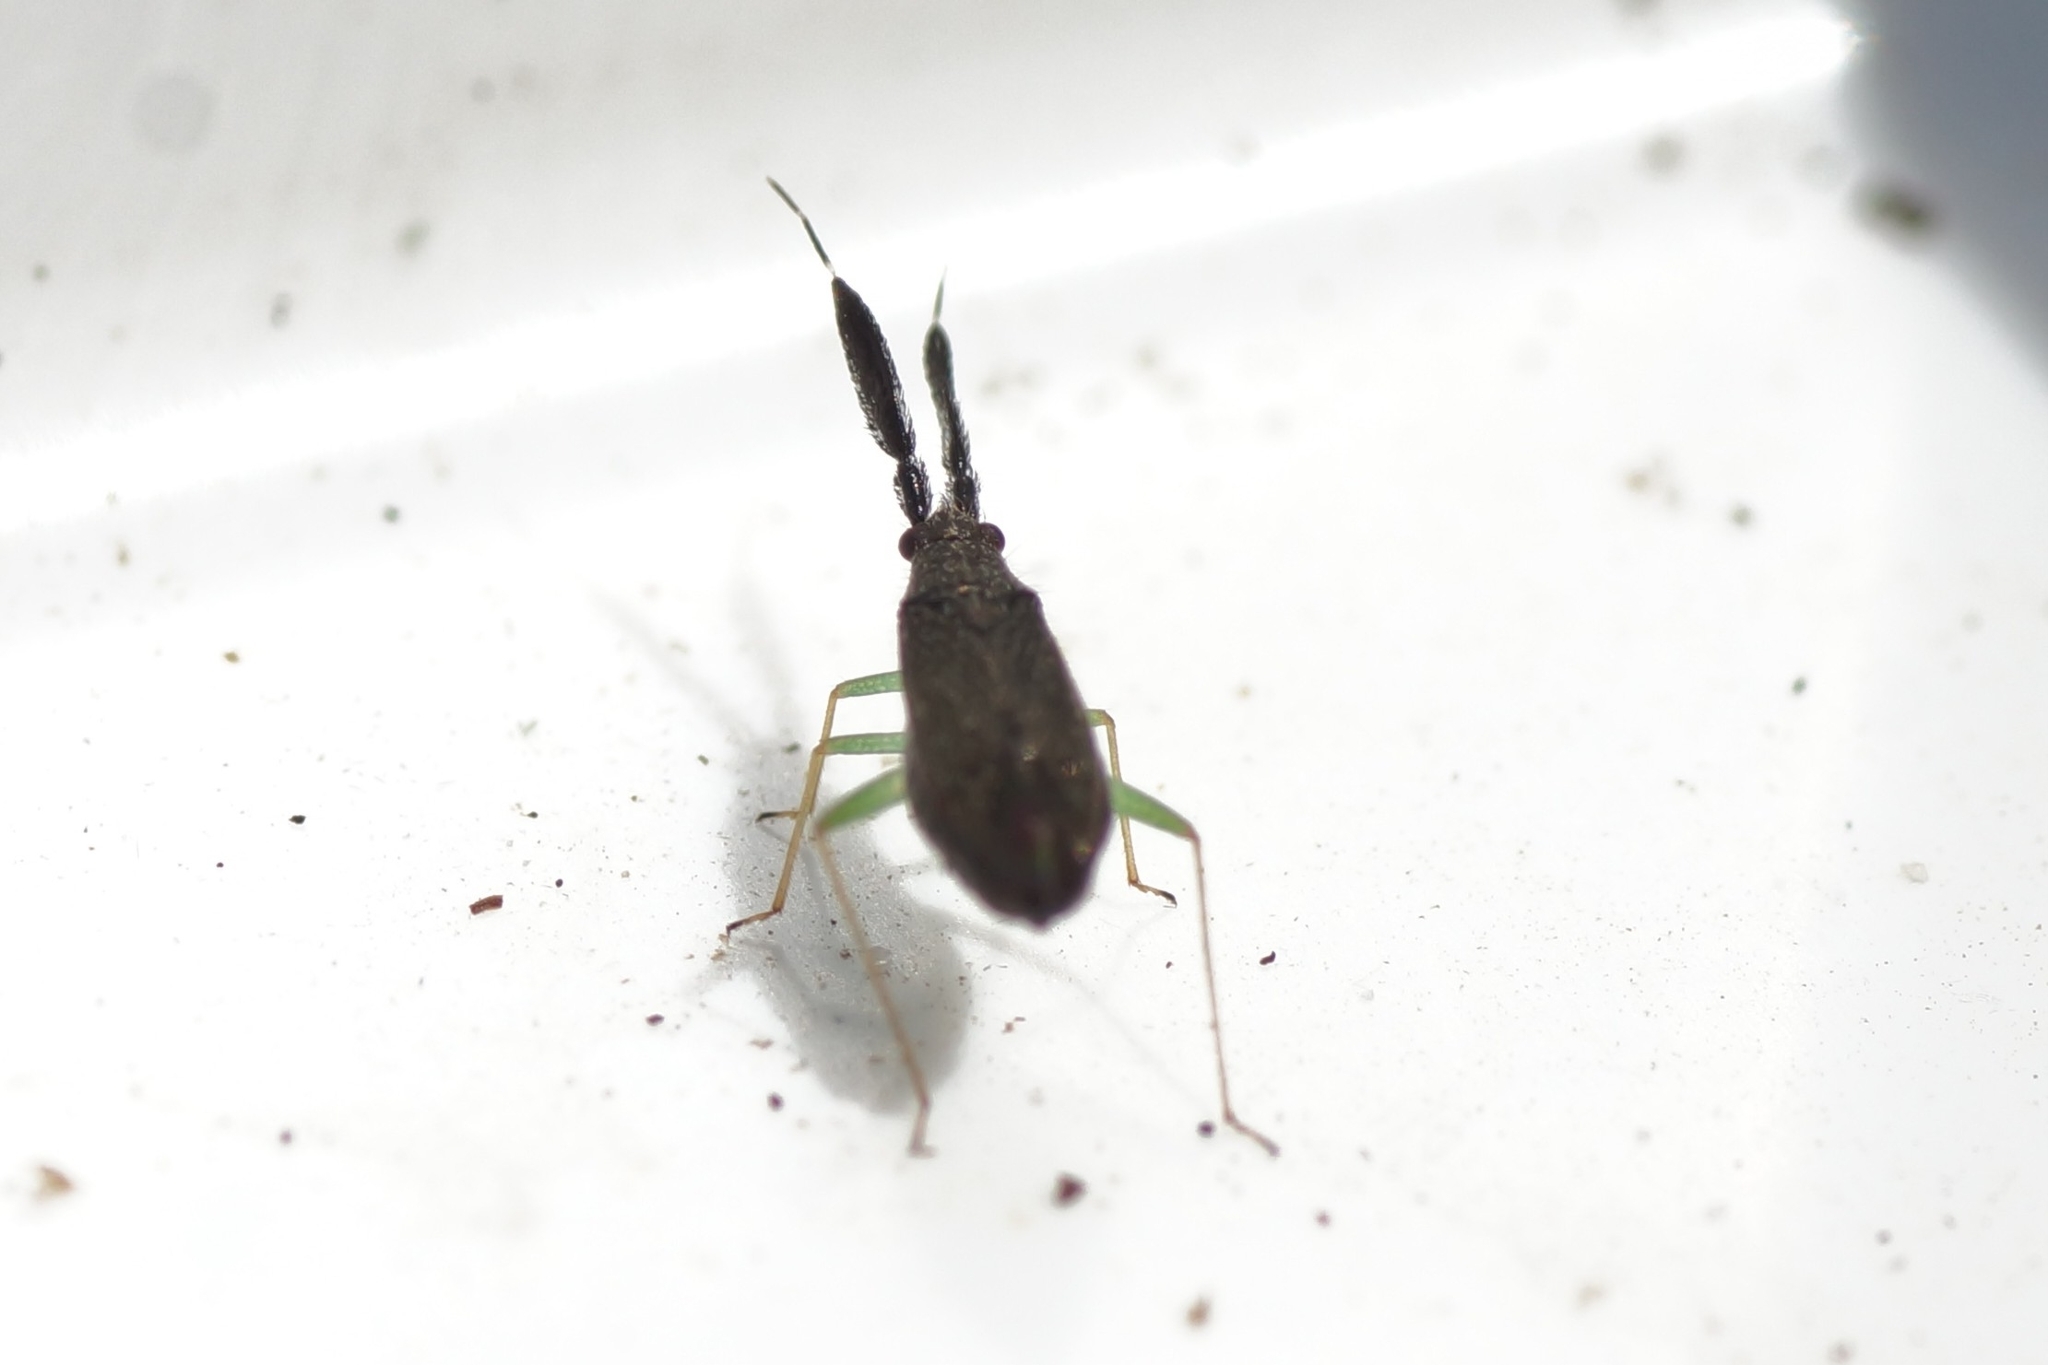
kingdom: Animalia
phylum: Arthropoda
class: Insecta
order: Hemiptera
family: Miridae
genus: Heterotoma
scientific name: Heterotoma planicornis
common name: Plant bug
